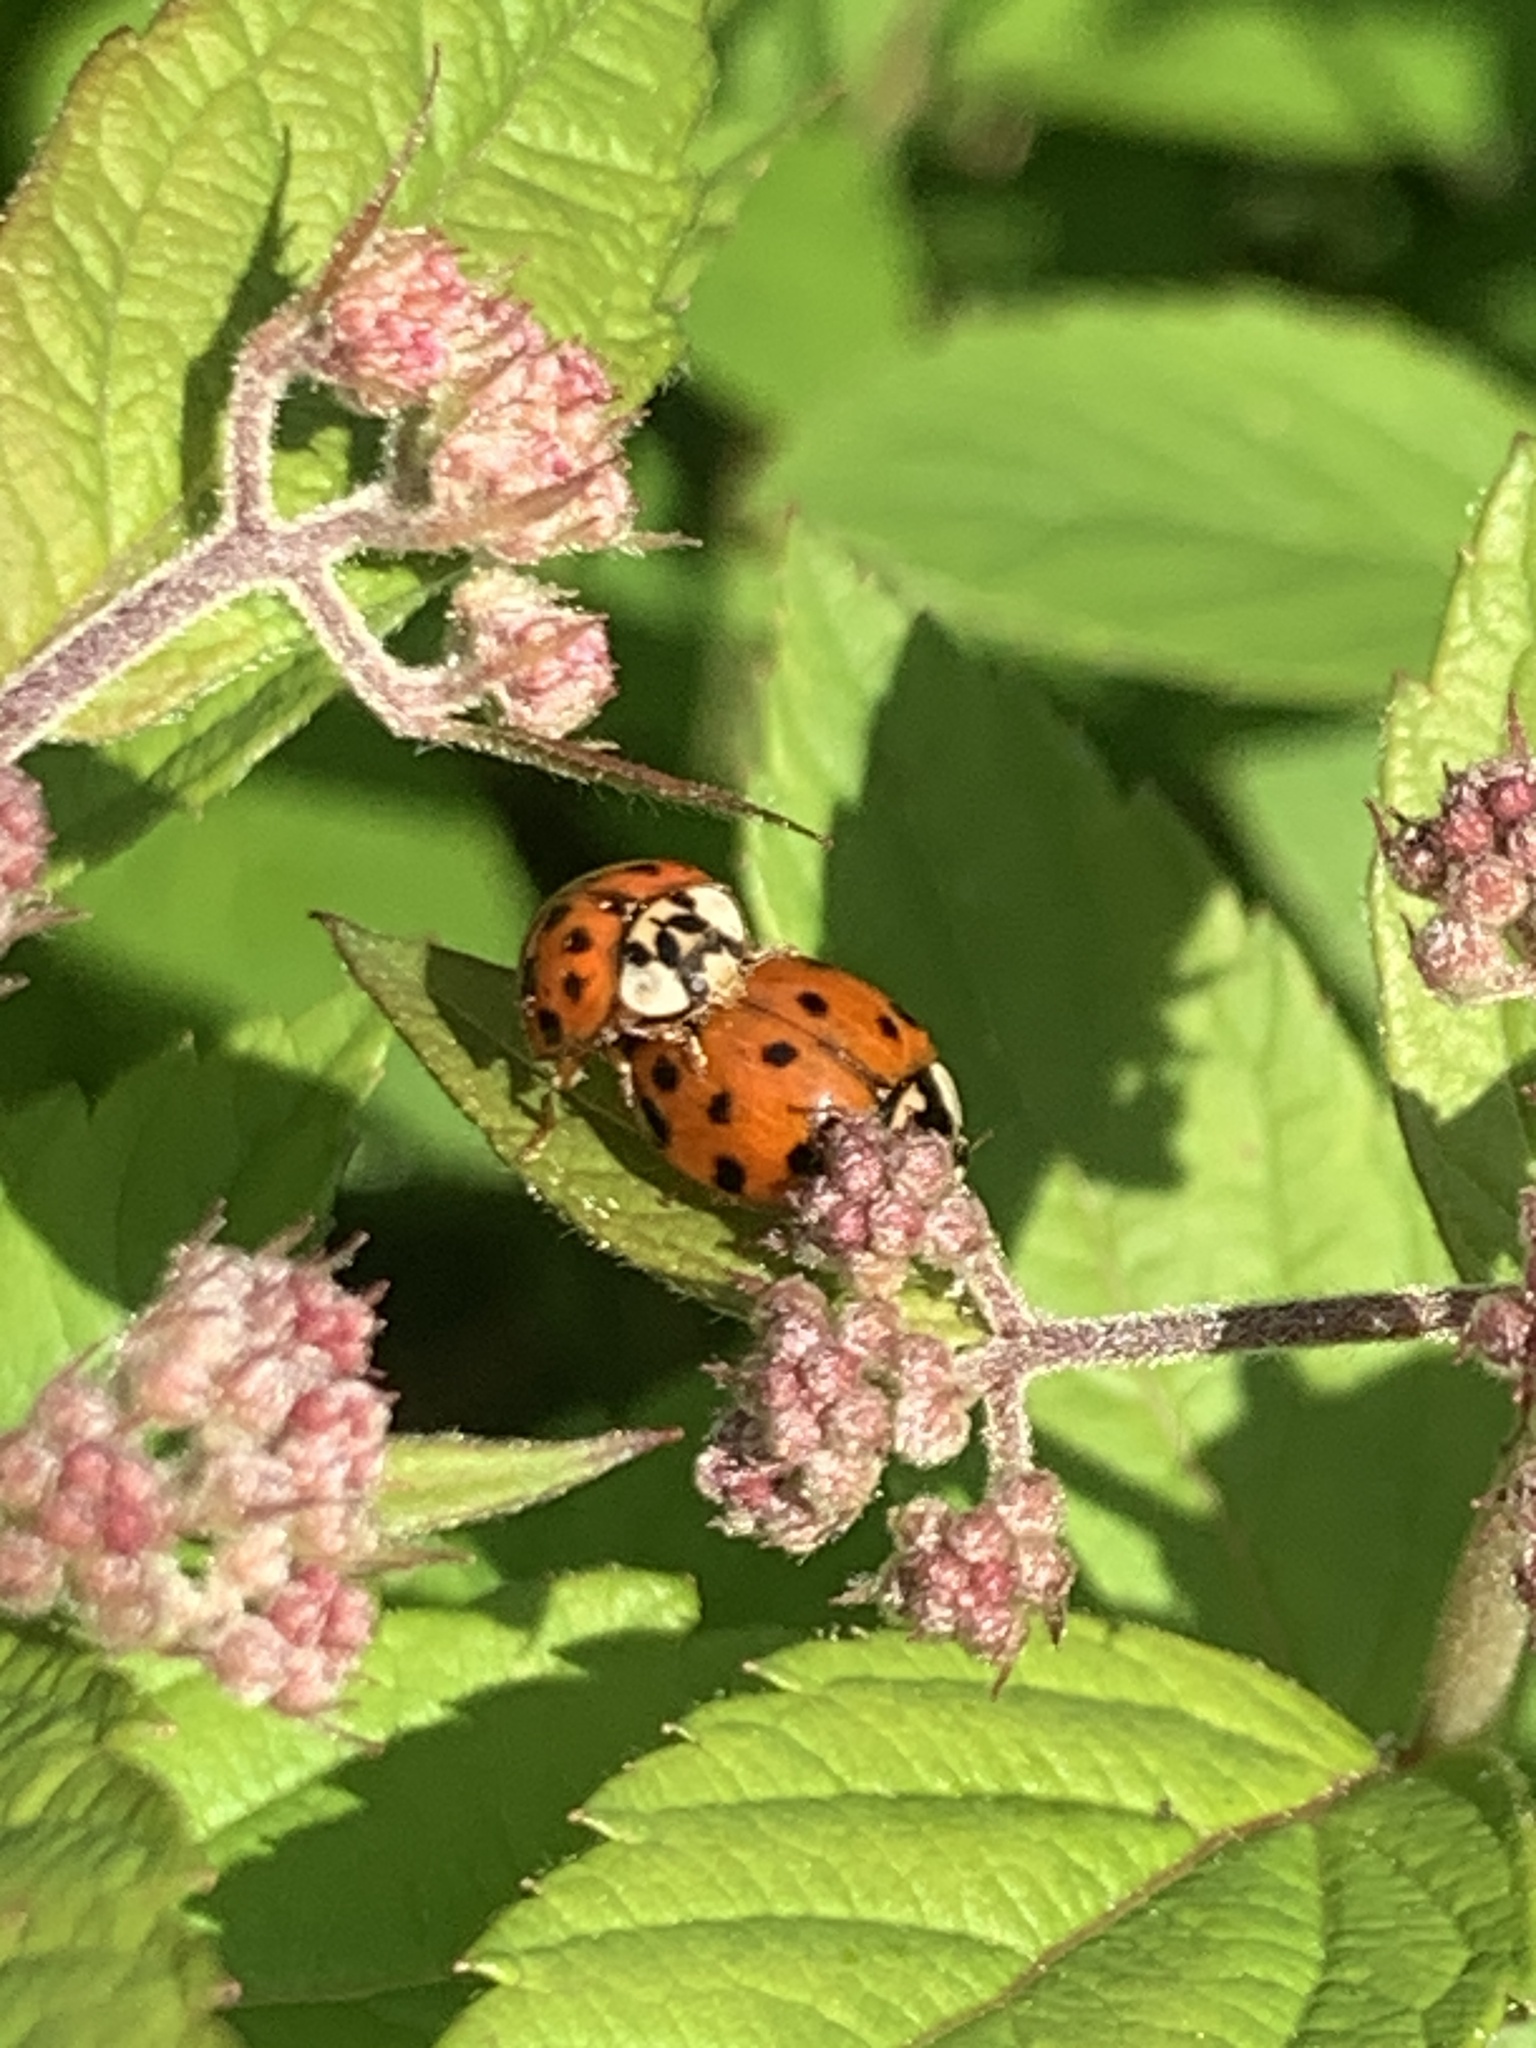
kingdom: Animalia
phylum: Arthropoda
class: Insecta
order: Coleoptera
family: Coccinellidae
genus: Harmonia
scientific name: Harmonia axyridis
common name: Harlequin ladybird
